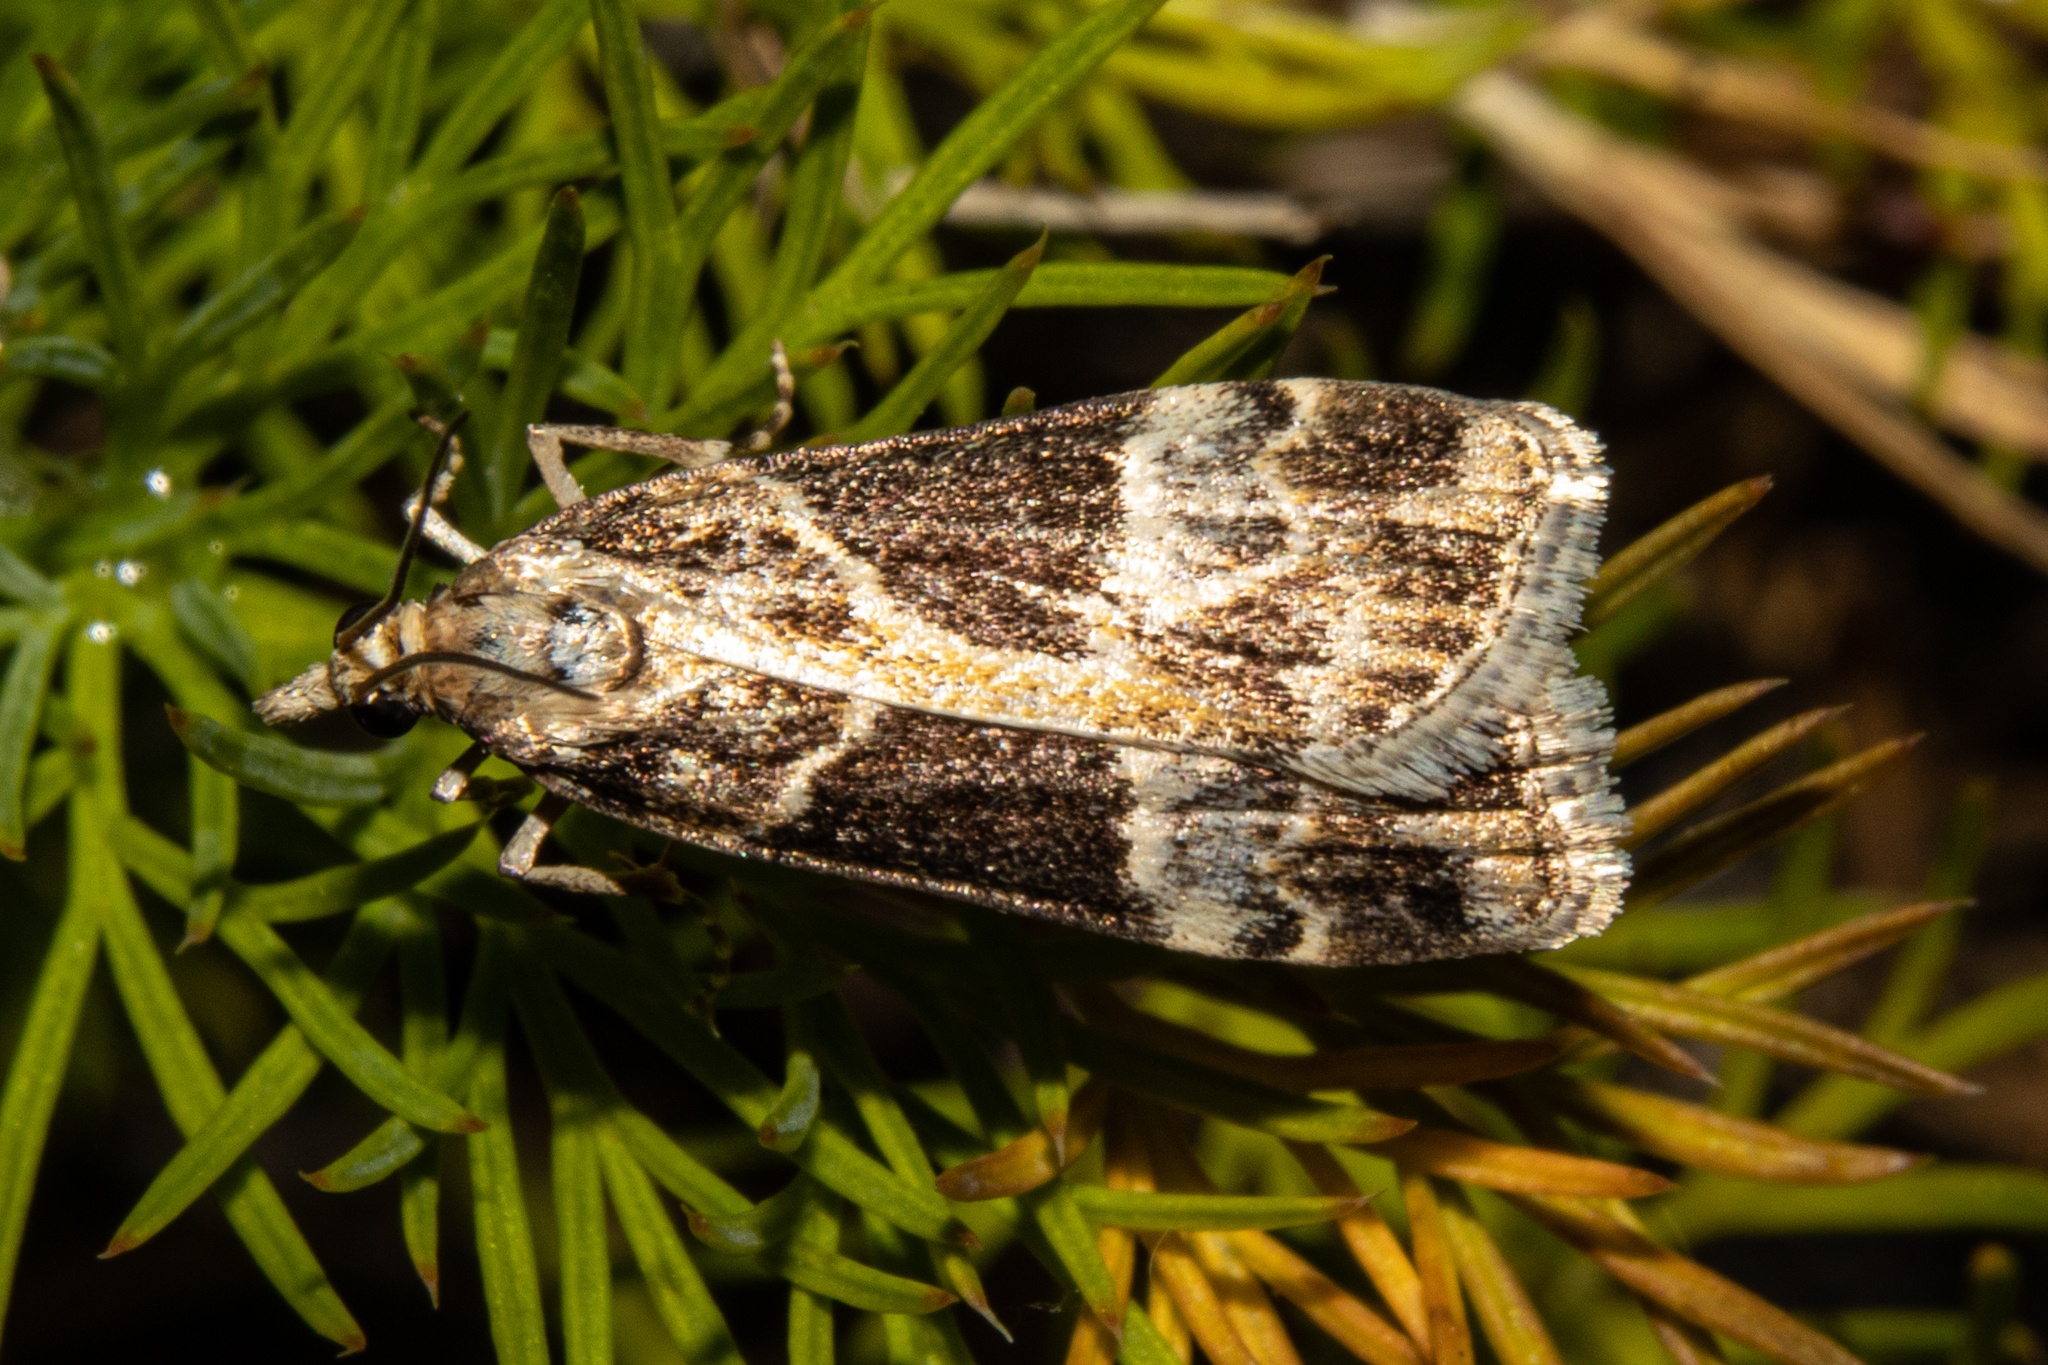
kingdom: Animalia
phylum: Arthropoda
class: Insecta
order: Lepidoptera
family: Crambidae
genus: Eudonia
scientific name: Eudonia melanaegis
